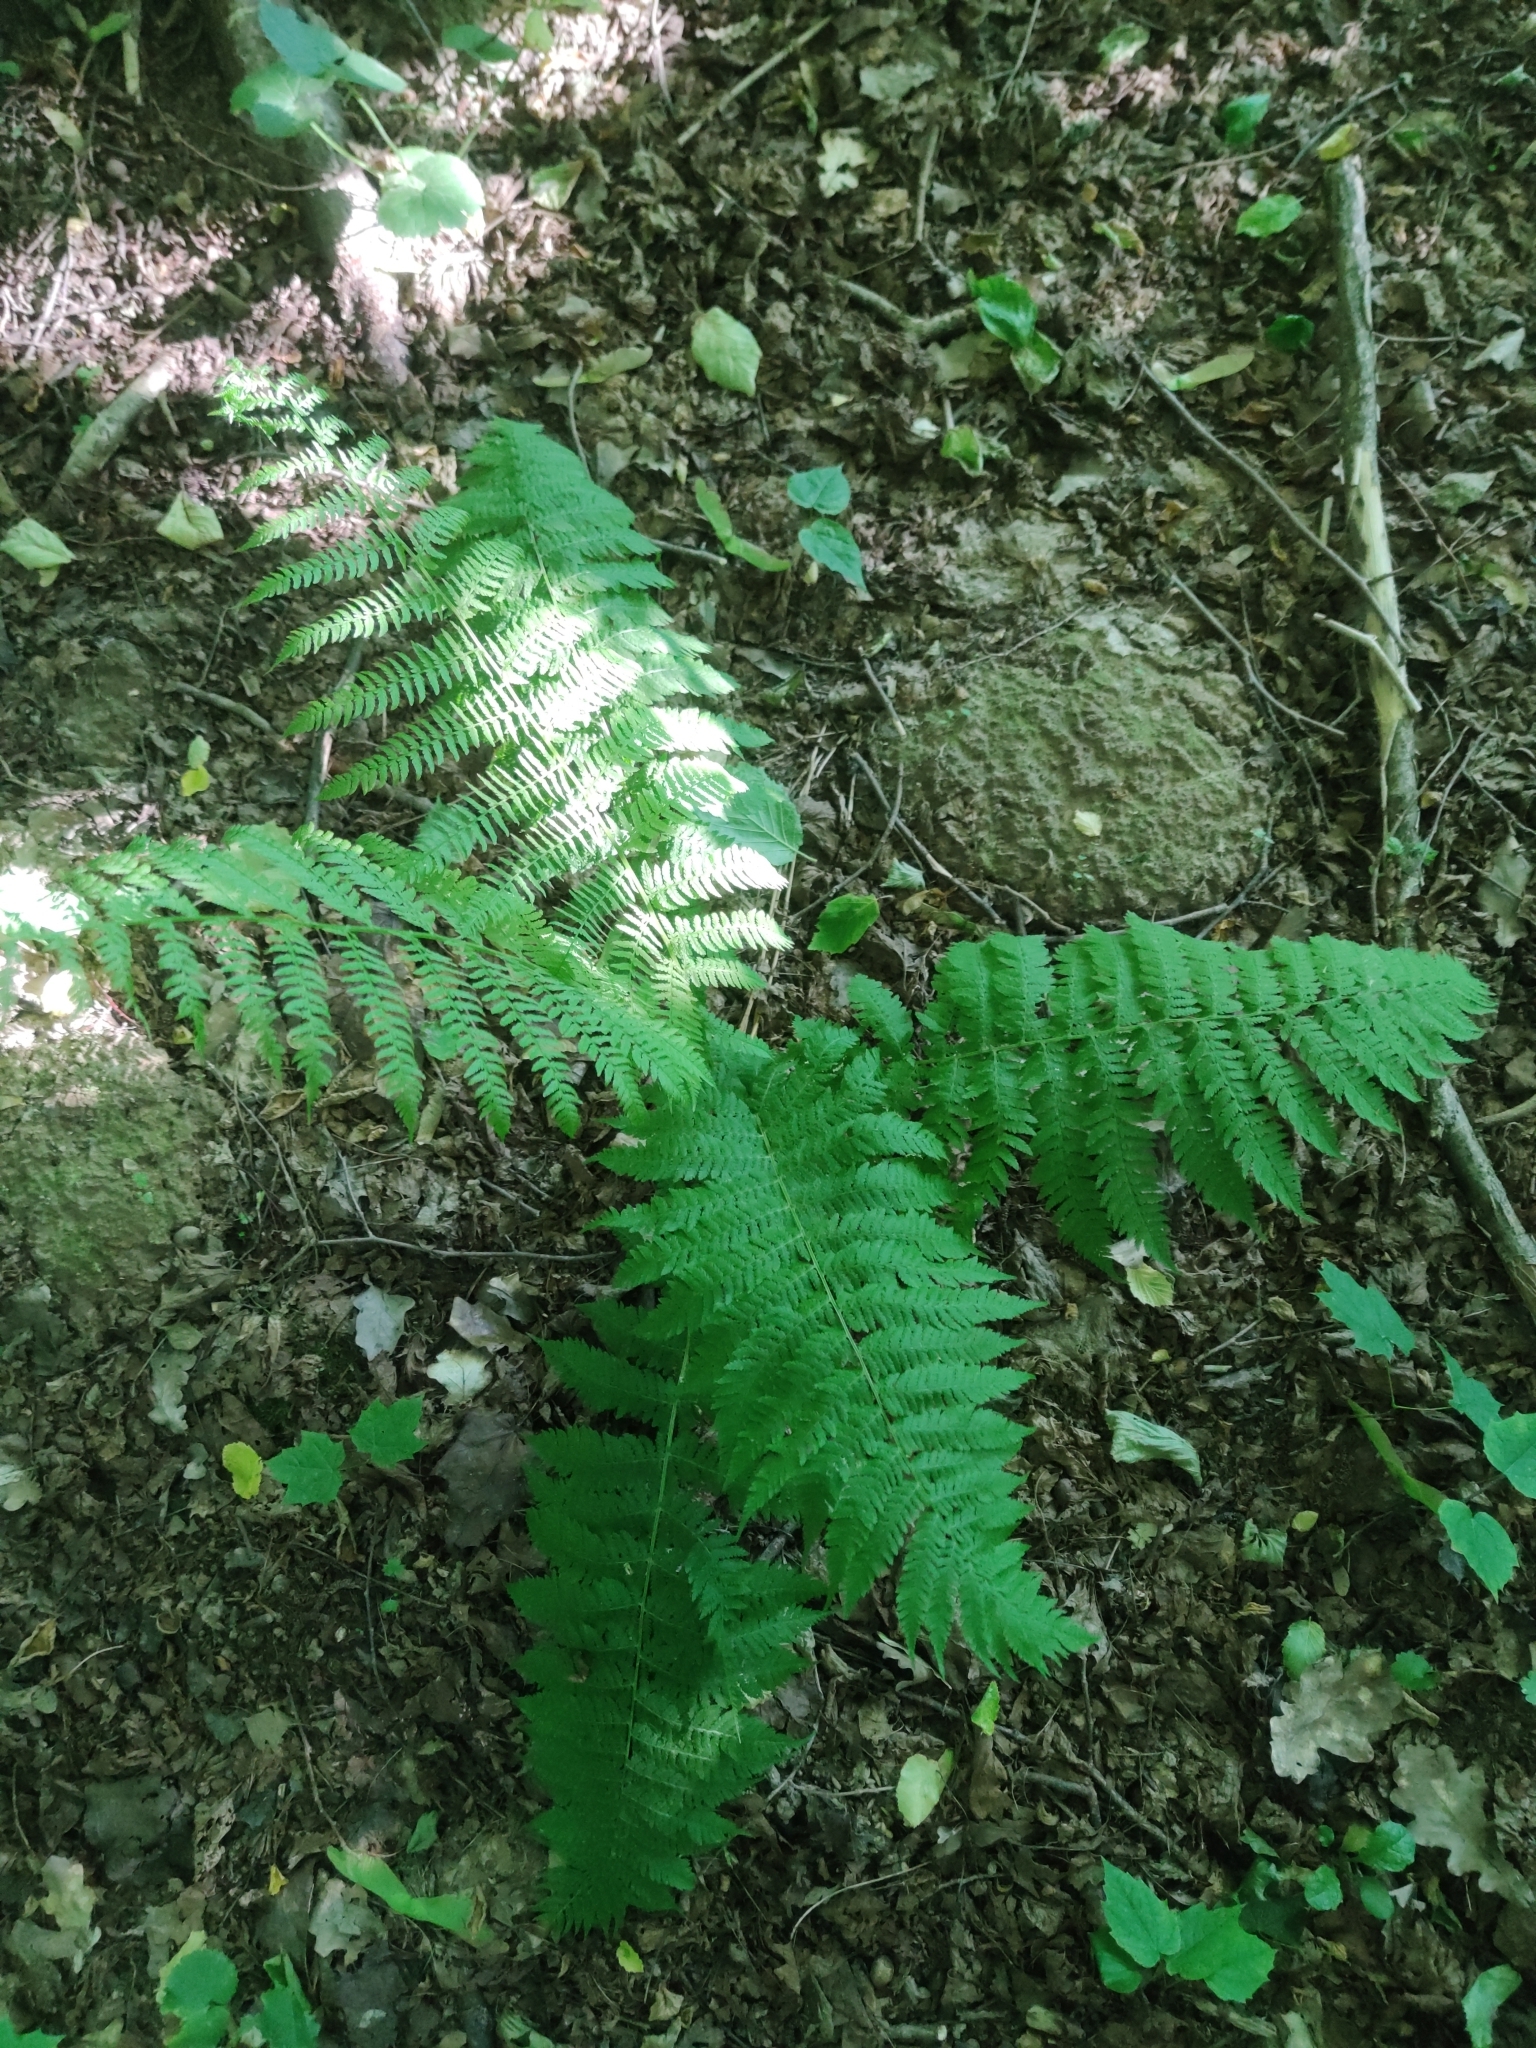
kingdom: Plantae
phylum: Tracheophyta
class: Polypodiopsida
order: Polypodiales
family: Athyriaceae
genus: Athyrium
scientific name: Athyrium filix-femina
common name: Lady fern
